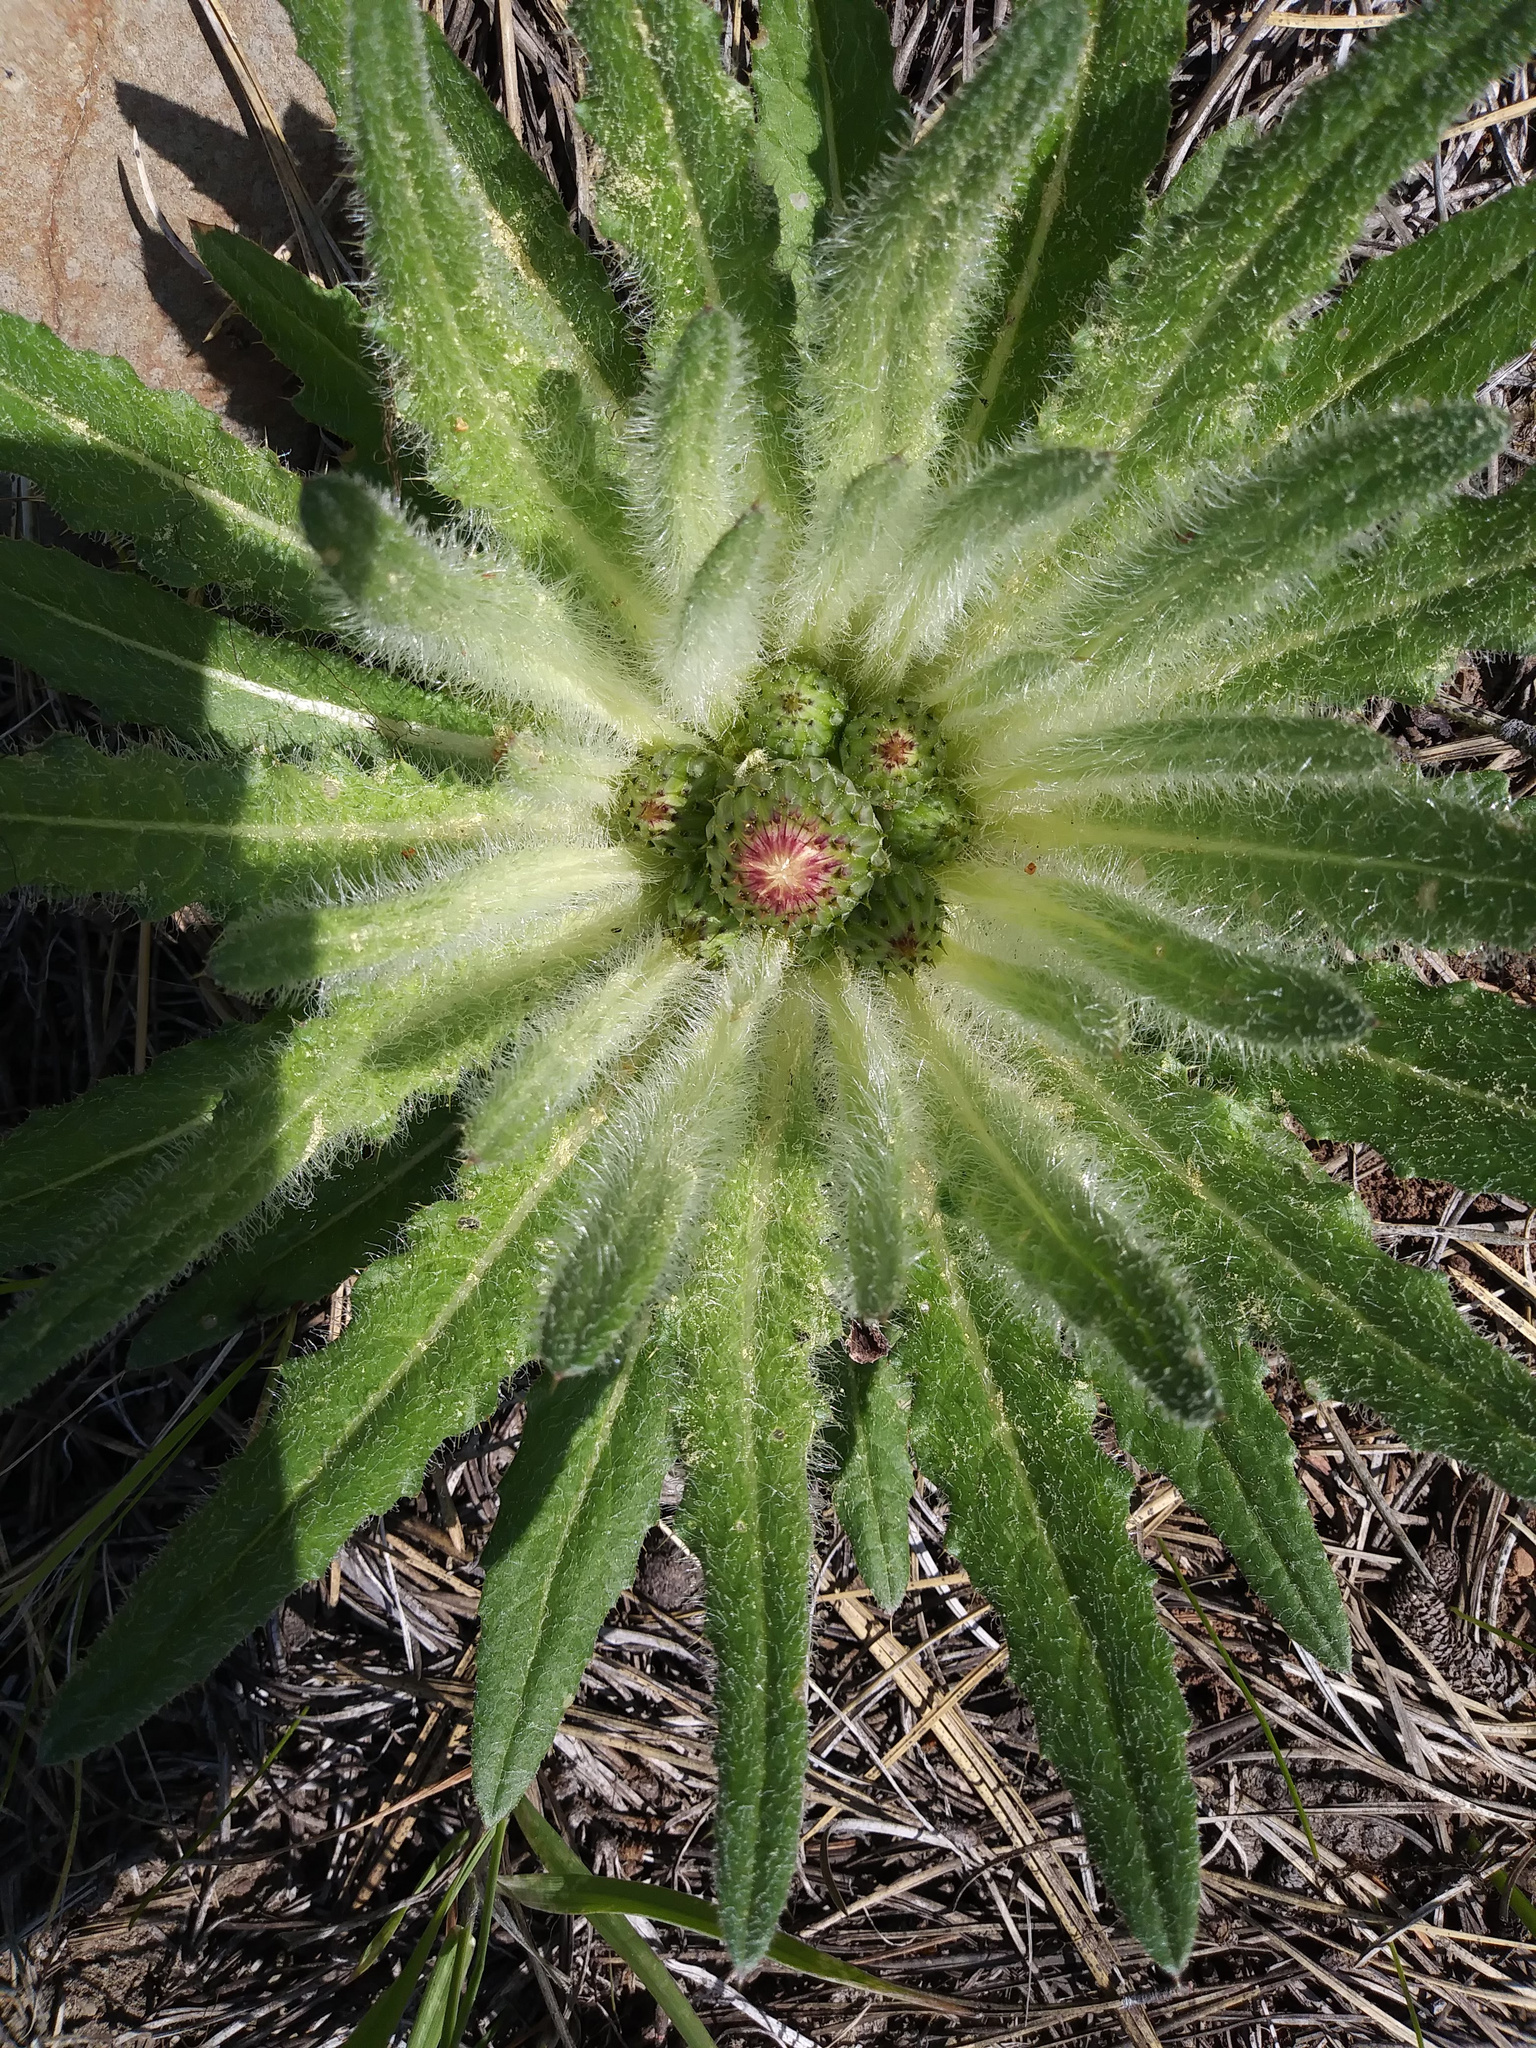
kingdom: Plantae
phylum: Tracheophyta
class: Magnoliopsida
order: Asterales
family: Asteraceae
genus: Cirsium
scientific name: Cirsium scariosum
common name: Meadow thistle
